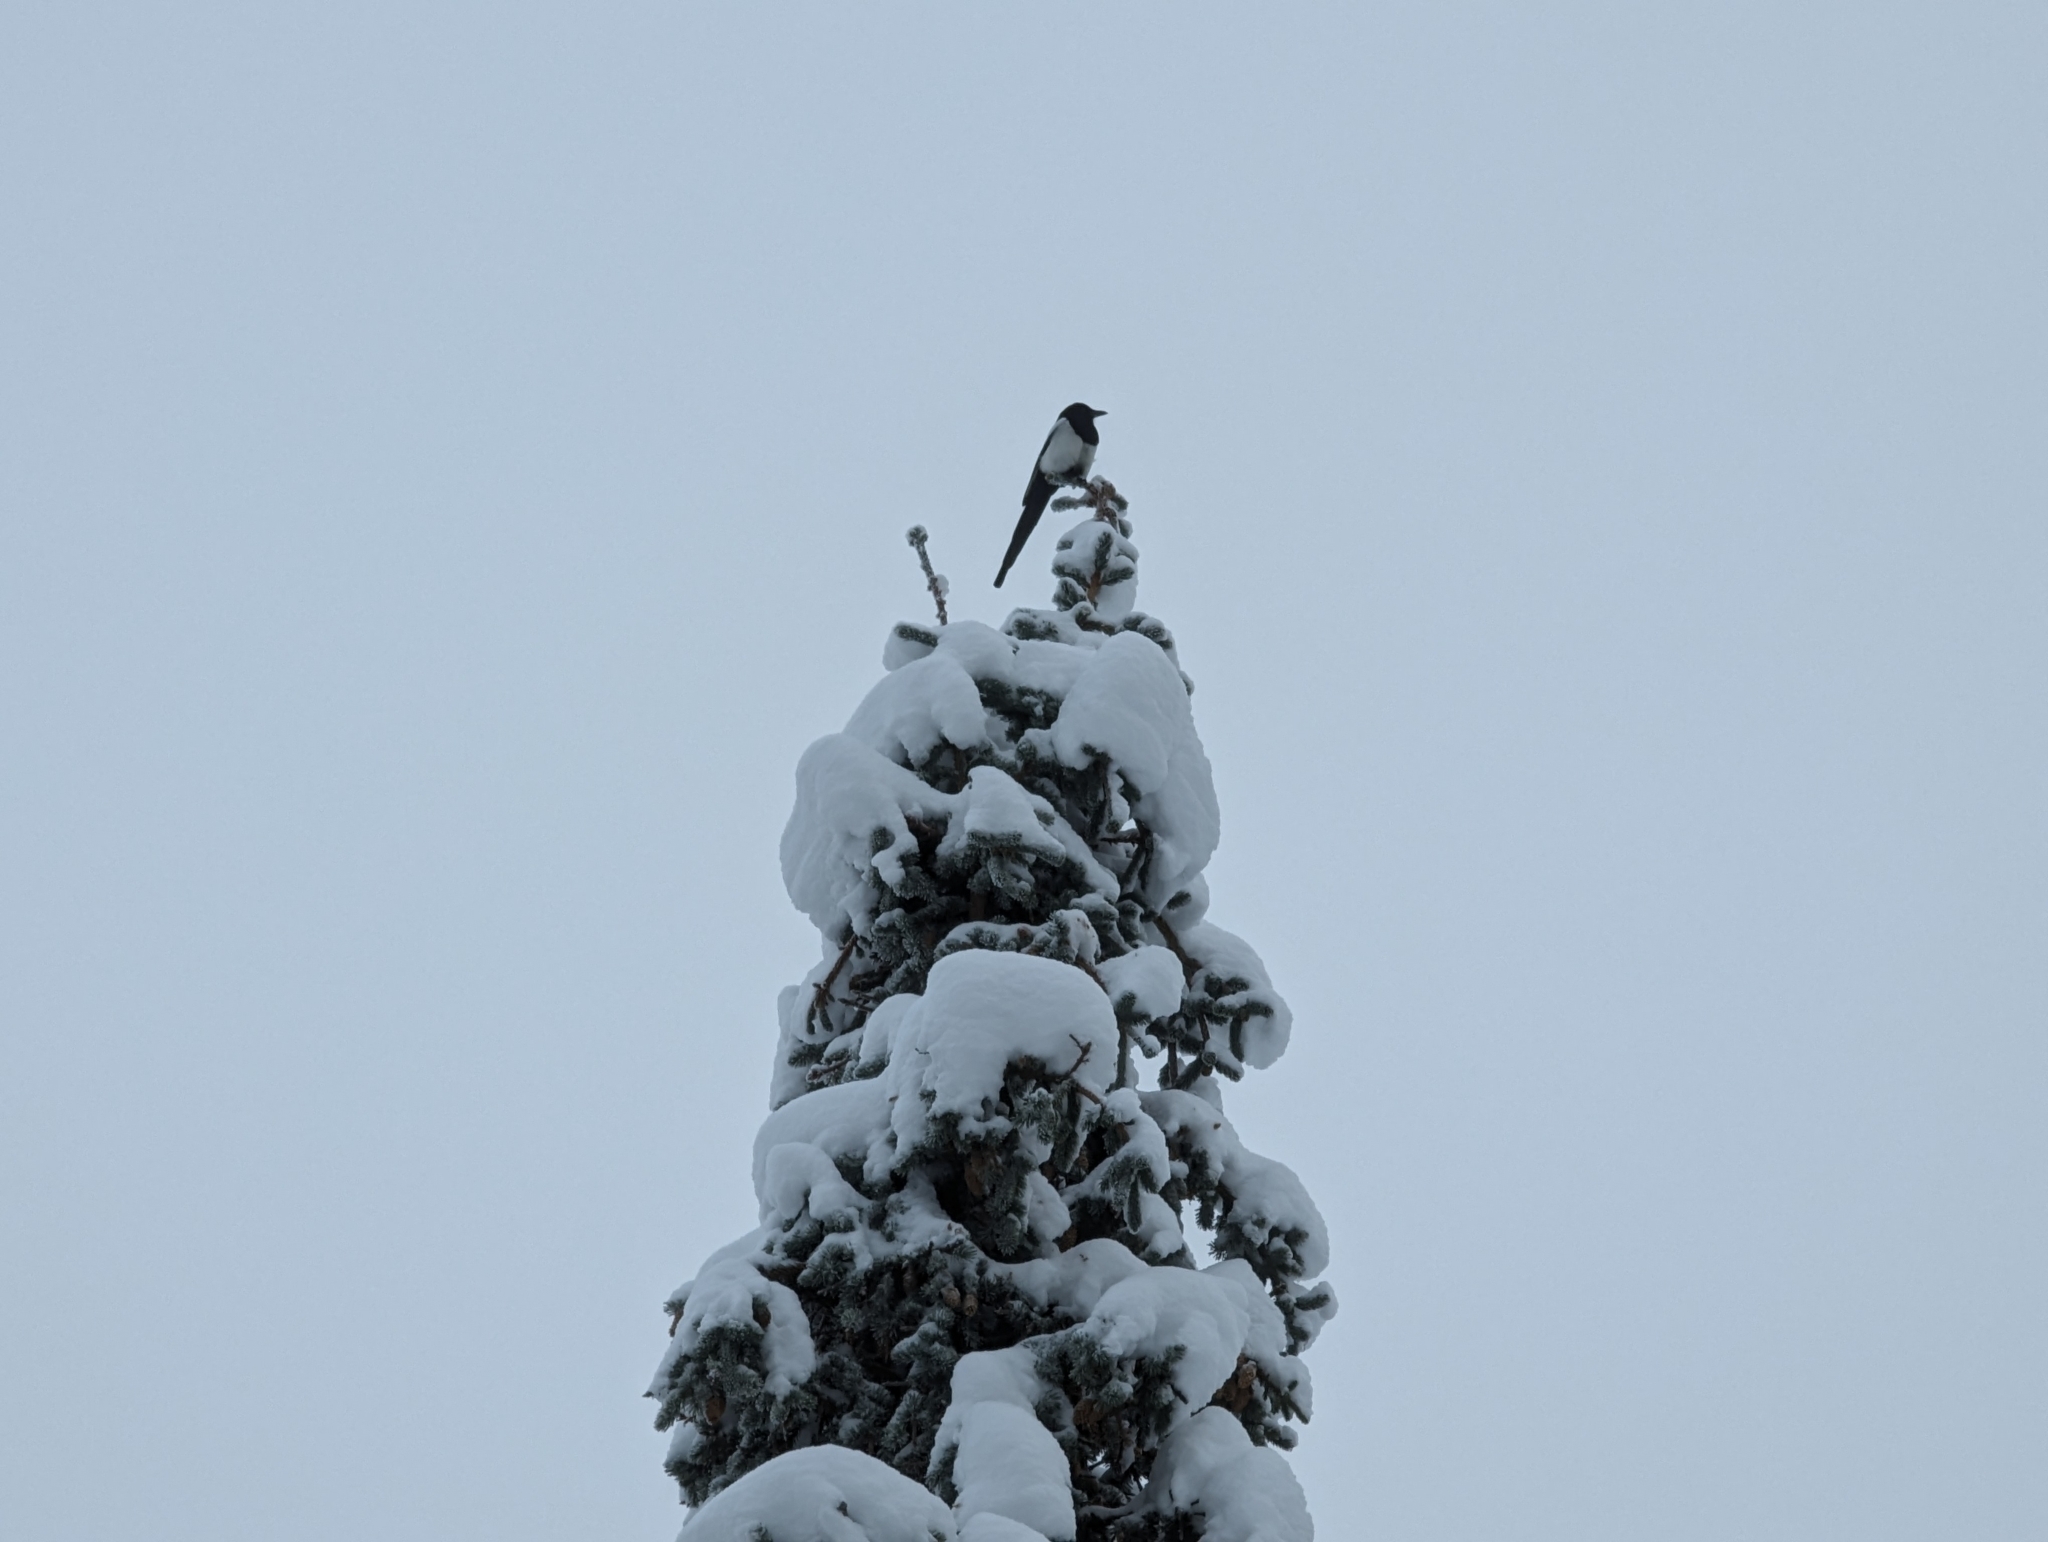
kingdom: Animalia
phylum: Chordata
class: Aves
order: Passeriformes
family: Corvidae
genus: Pica
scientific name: Pica hudsonia
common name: Black-billed magpie
